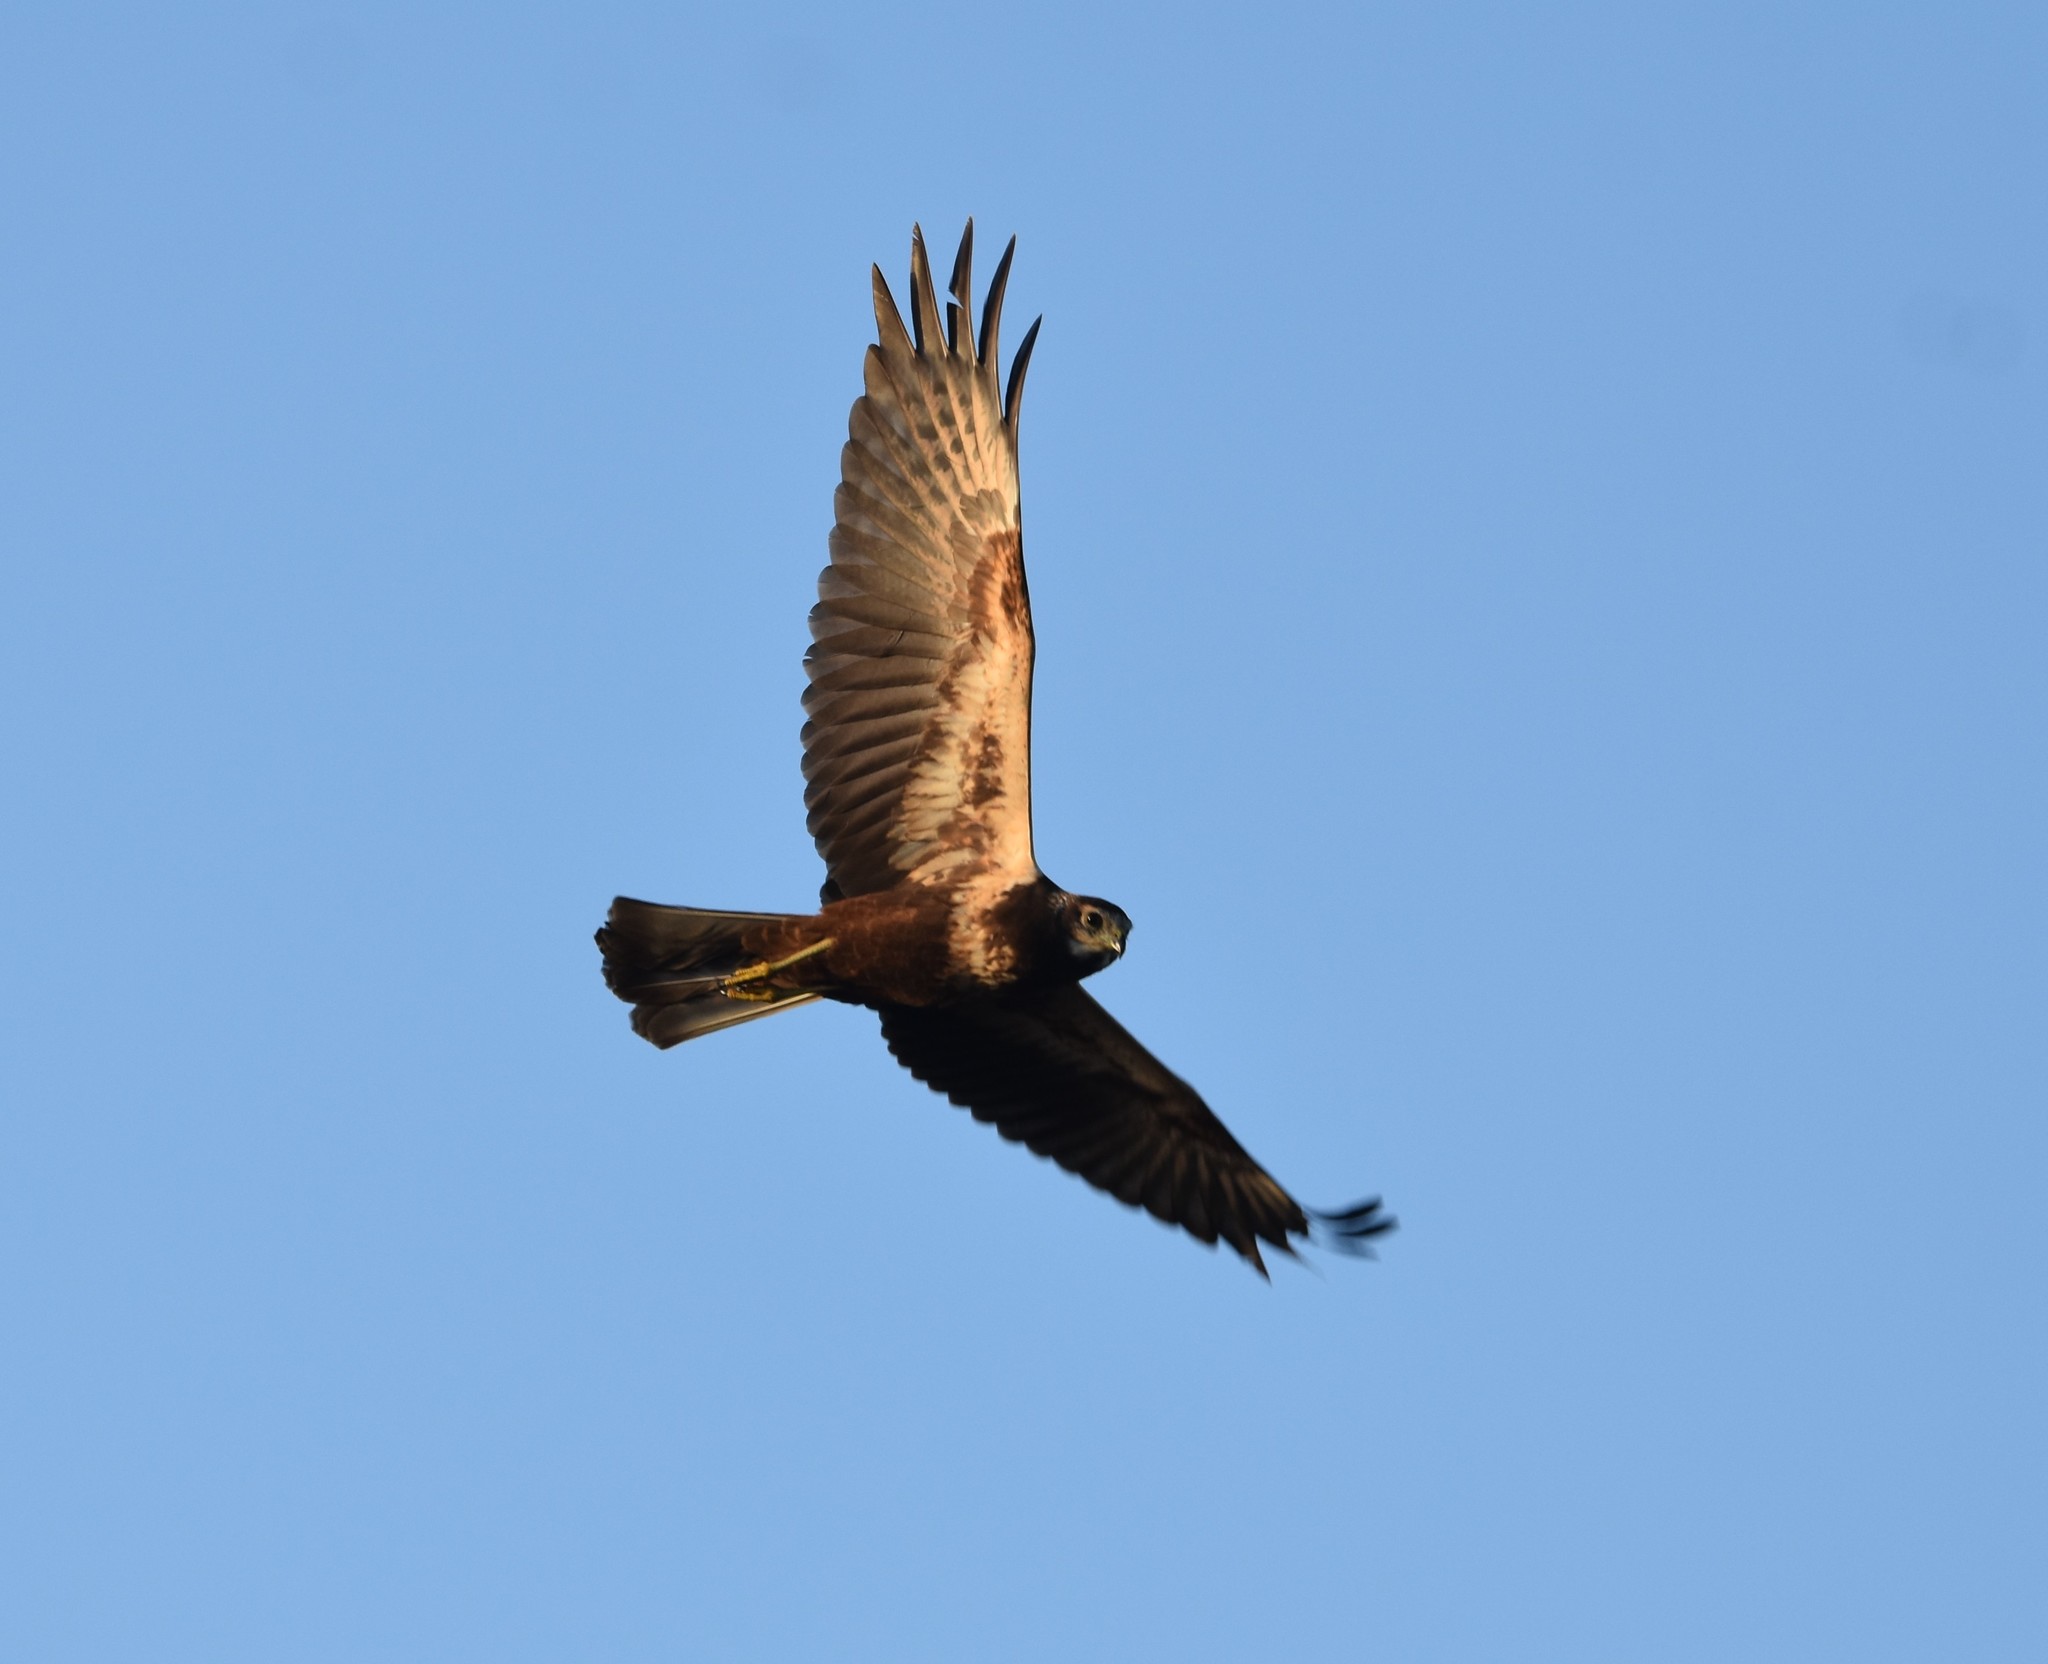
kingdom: Animalia
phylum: Chordata
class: Aves
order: Accipitriformes
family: Accipitridae
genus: Circus
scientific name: Circus ranivorus
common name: African marsh-harrier
